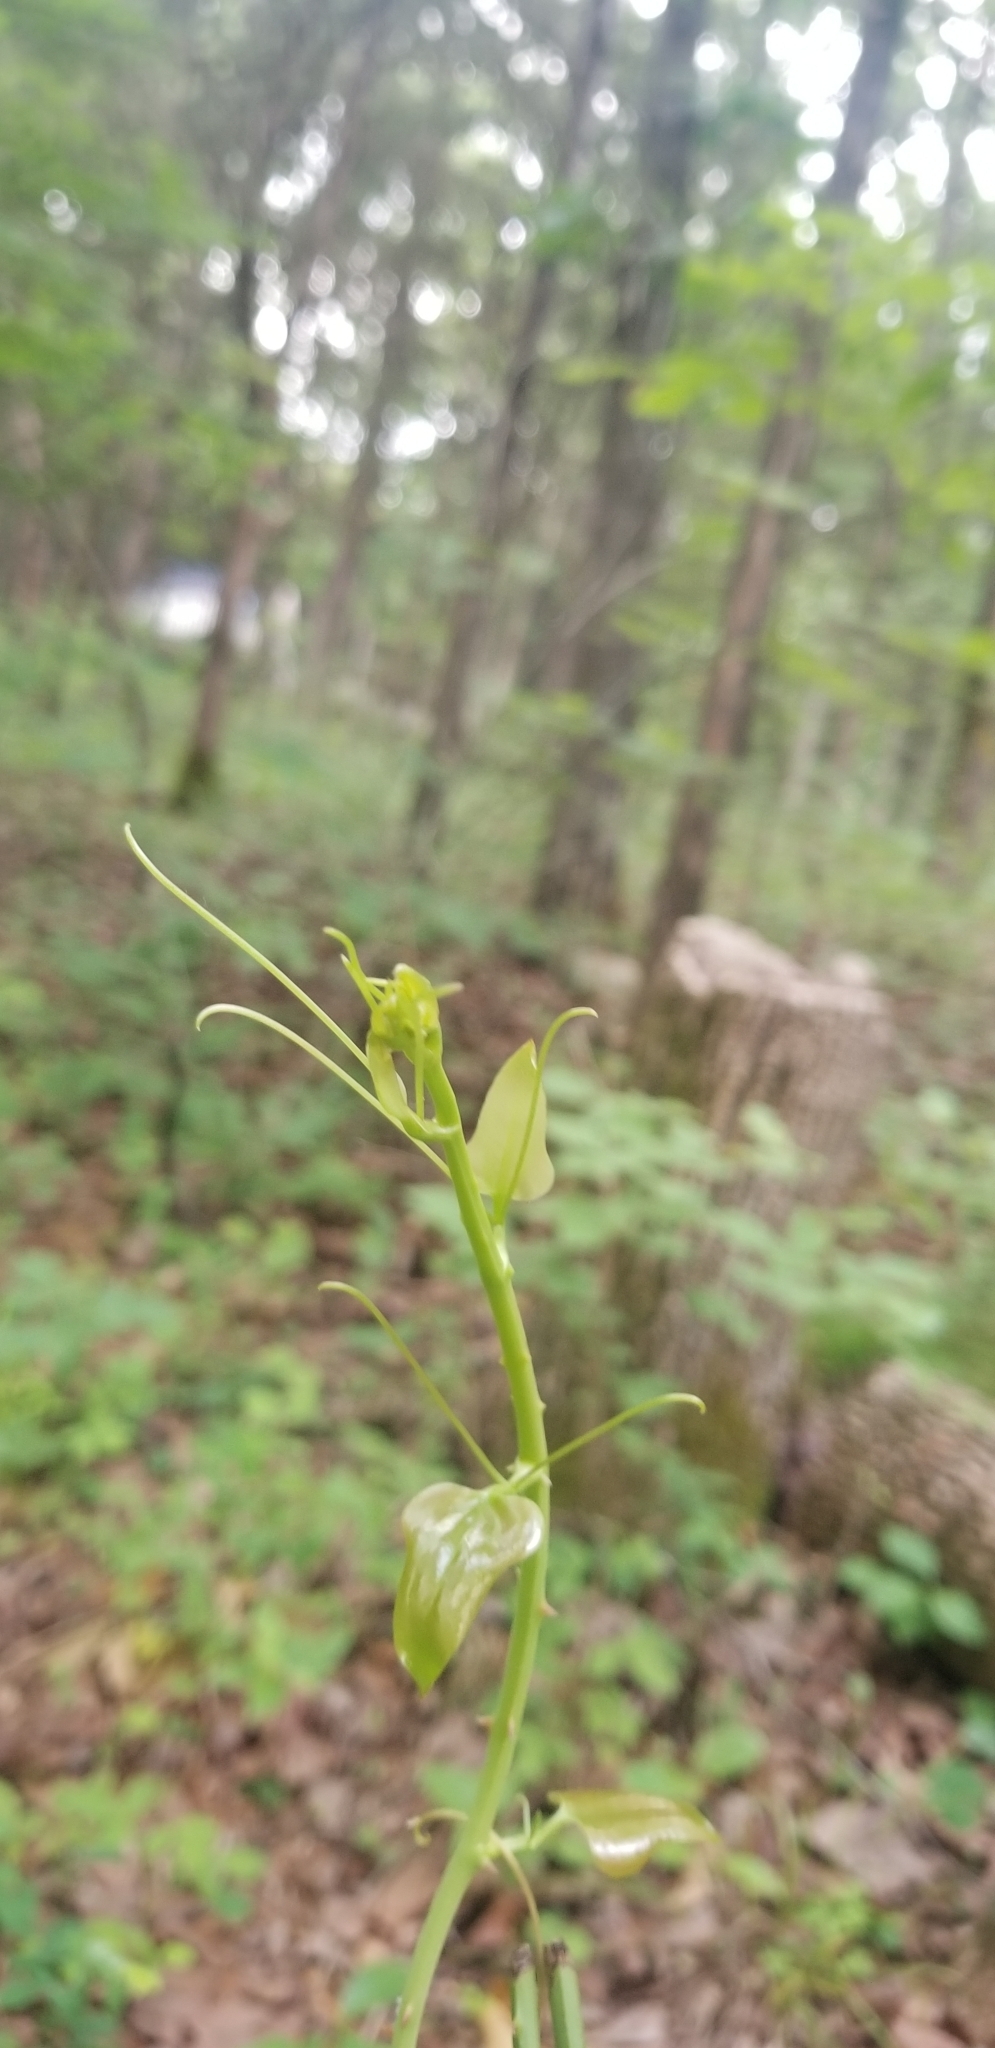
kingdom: Plantae
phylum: Tracheophyta
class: Liliopsida
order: Liliales
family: Smilacaceae
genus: Smilax
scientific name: Smilax bona-nox
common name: Catbrier
